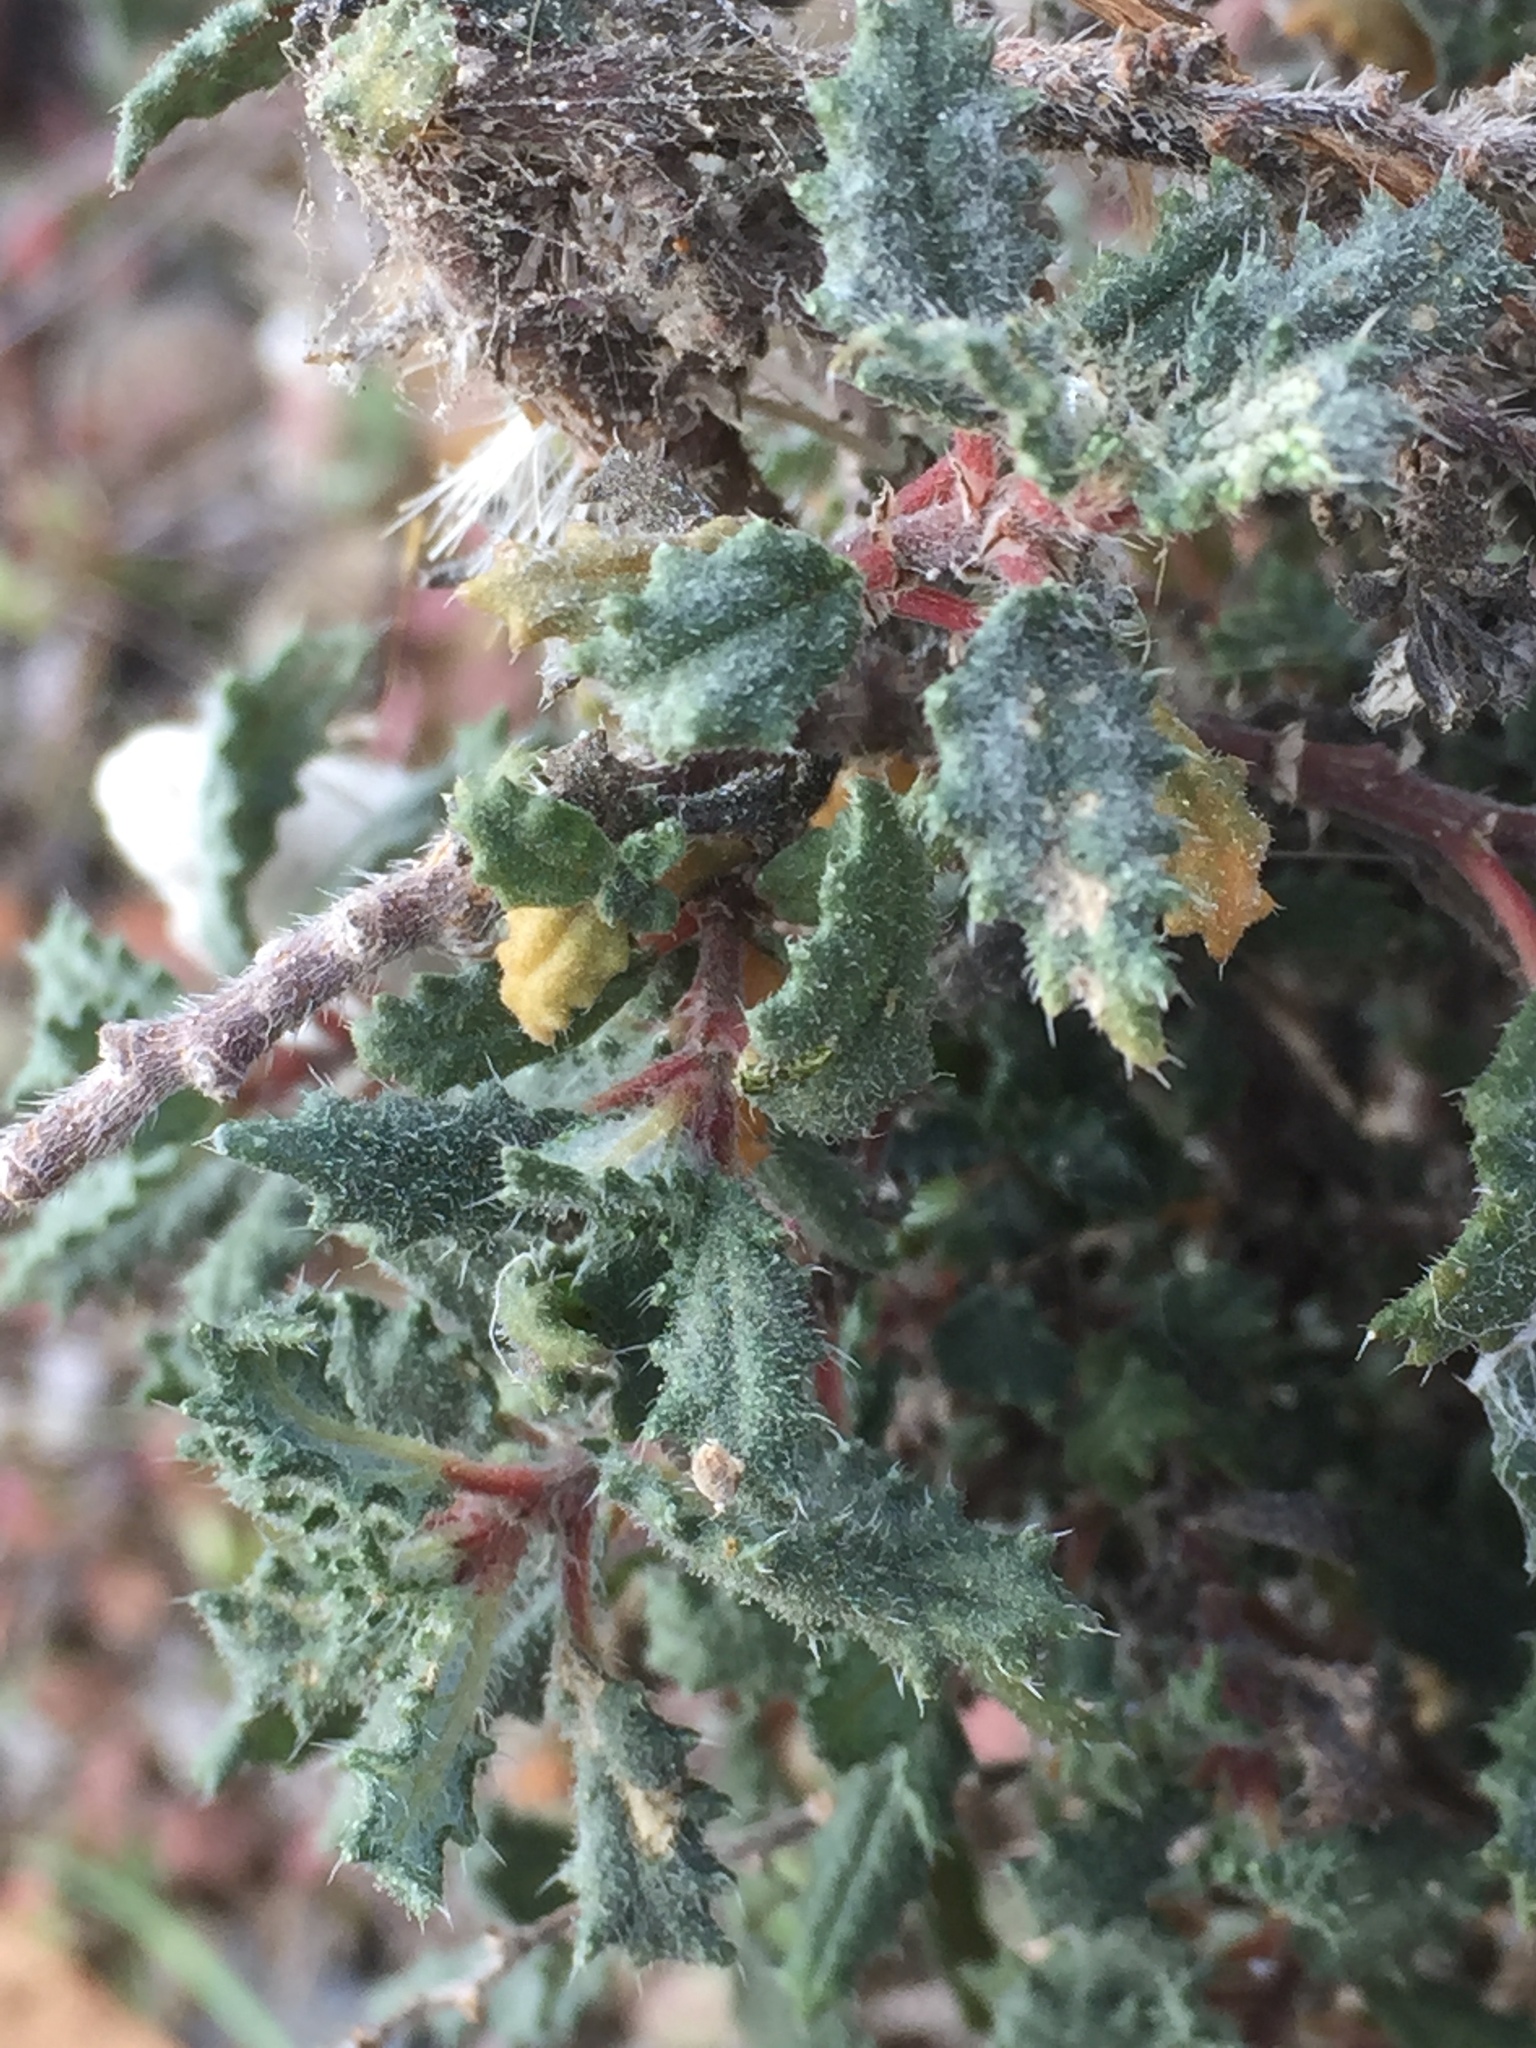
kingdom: Plantae
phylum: Tracheophyta
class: Magnoliopsida
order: Rosales
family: Urticaceae
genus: Forsskaolea
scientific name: Forsskaolea angustifolia
